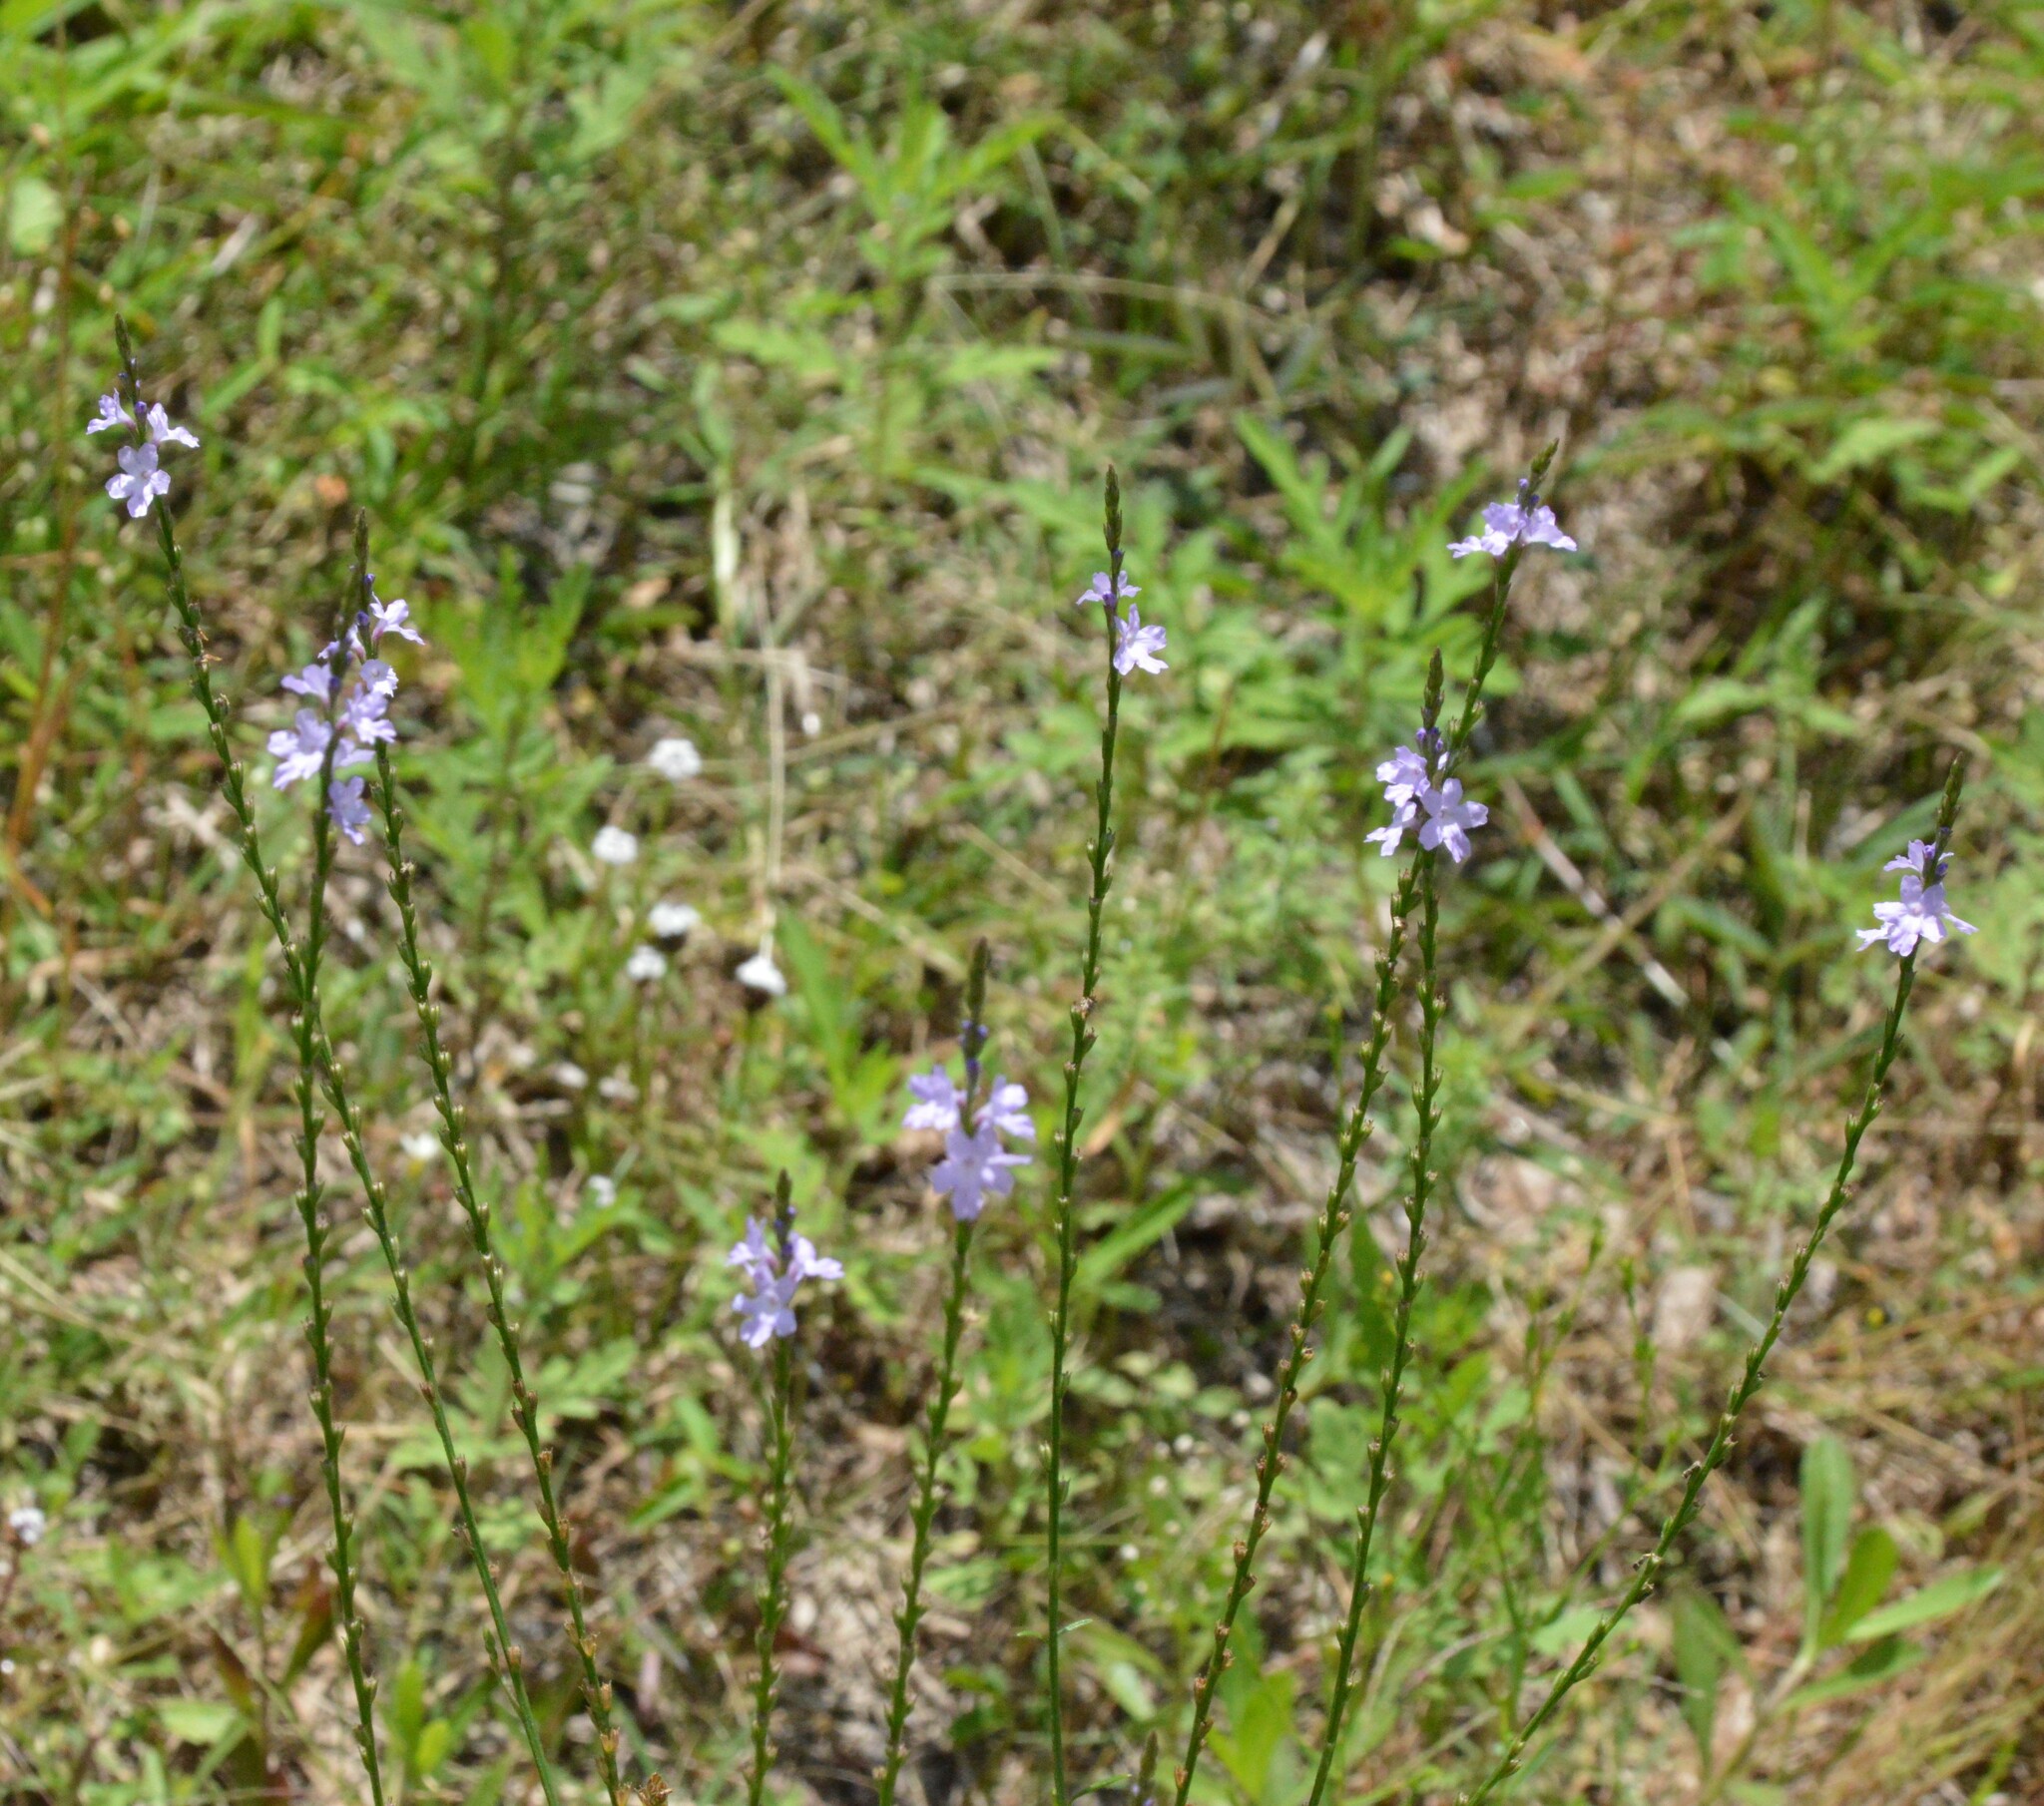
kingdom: Plantae
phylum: Tracheophyta
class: Magnoliopsida
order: Lamiales
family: Verbenaceae
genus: Verbena
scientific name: Verbena halei
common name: Texas vervain
